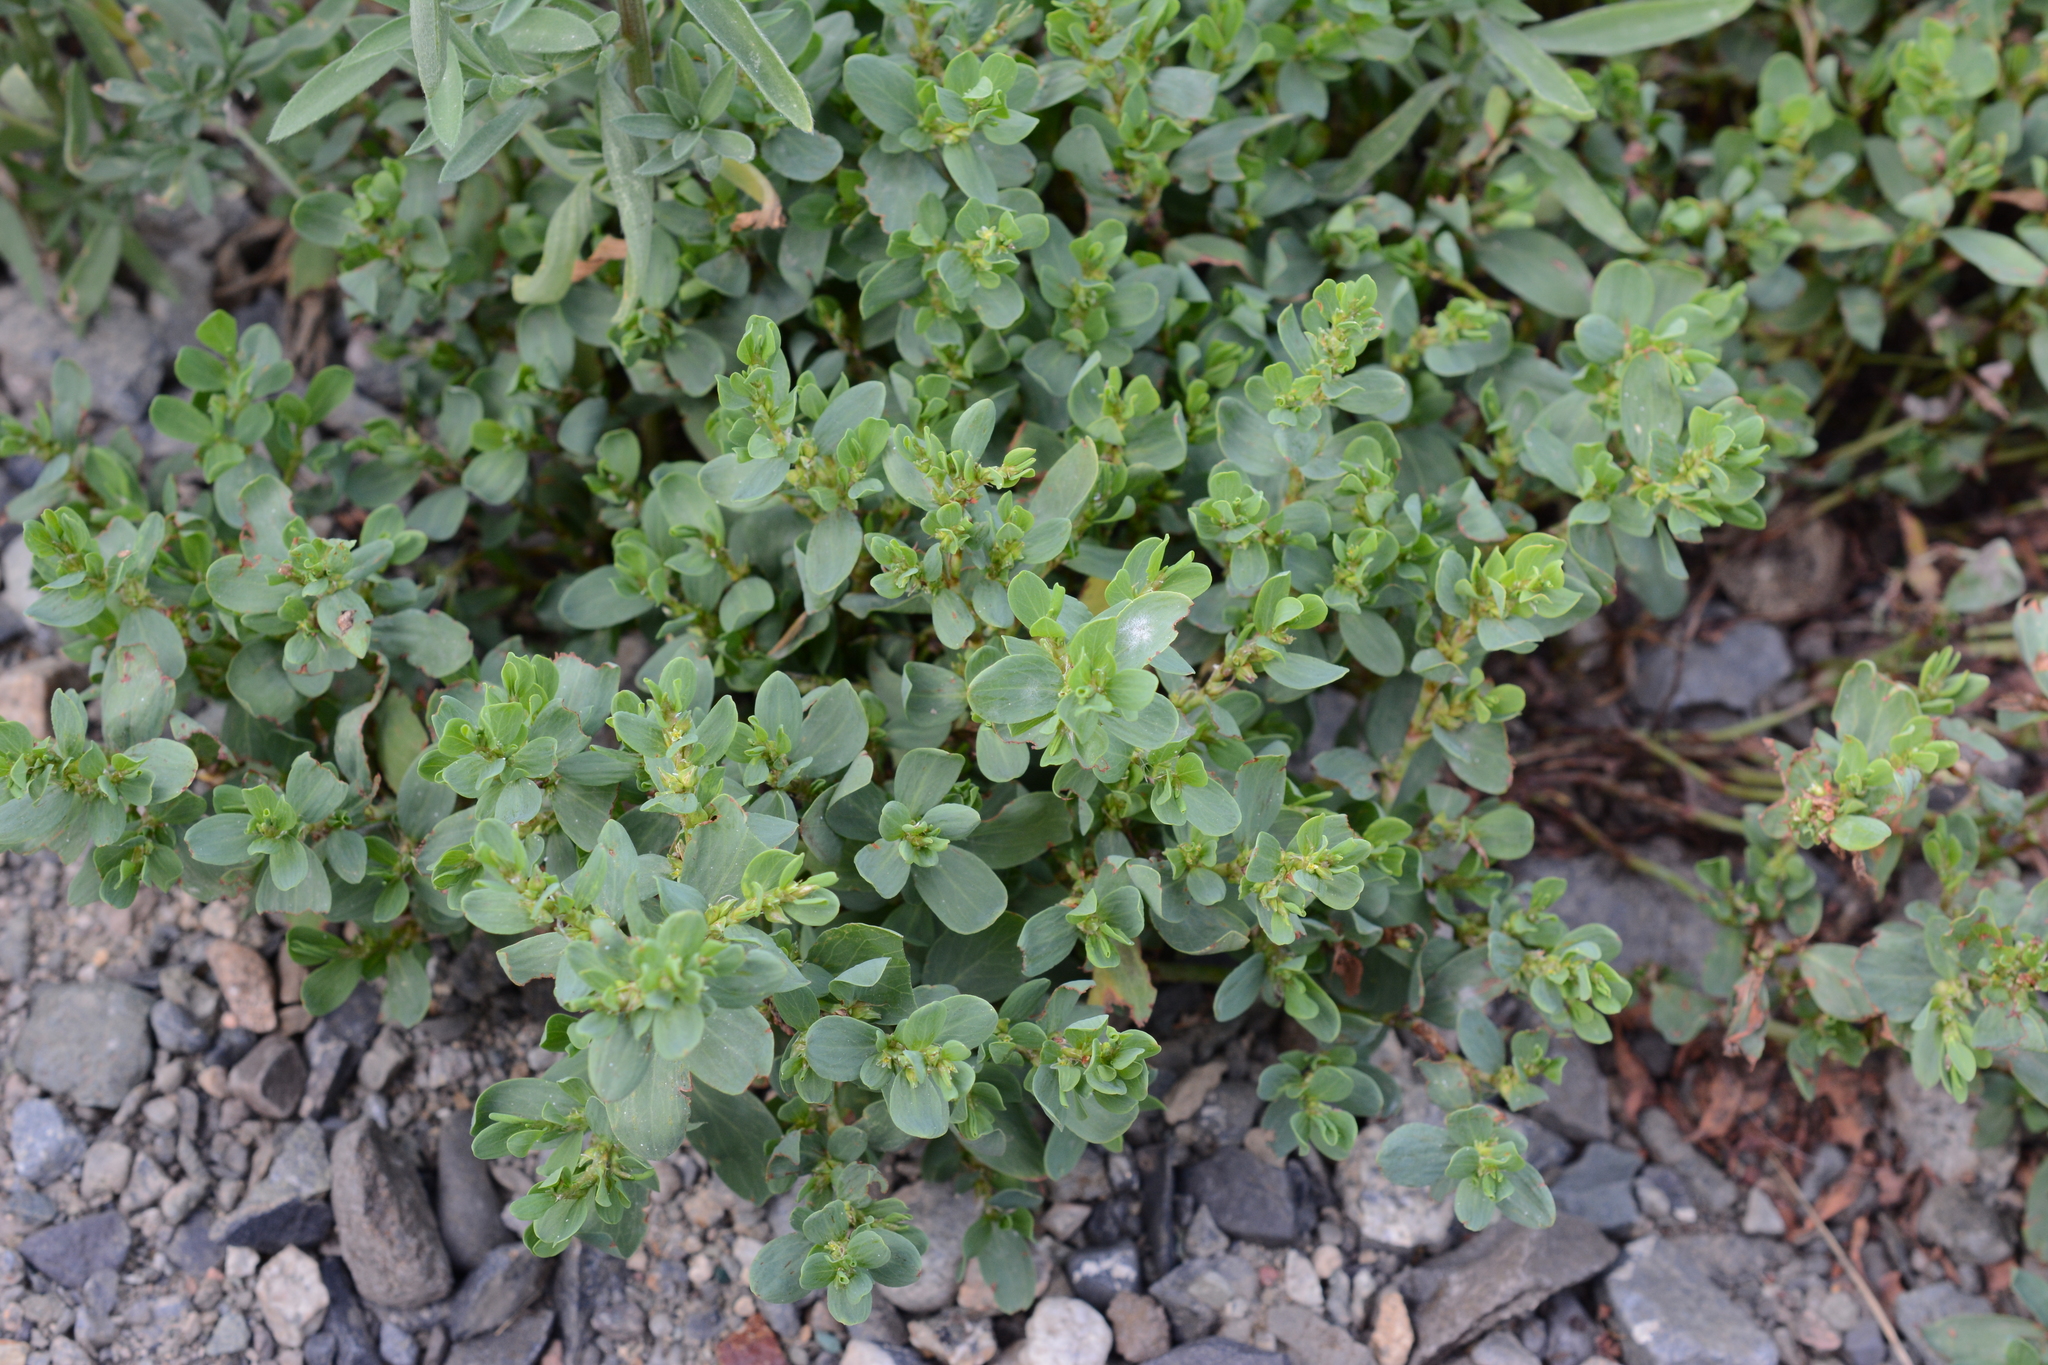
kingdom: Plantae
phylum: Tracheophyta
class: Magnoliopsida
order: Caryophyllales
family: Polygonaceae
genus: Polygonum
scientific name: Polygonum achoreum
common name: Striate knotweed
